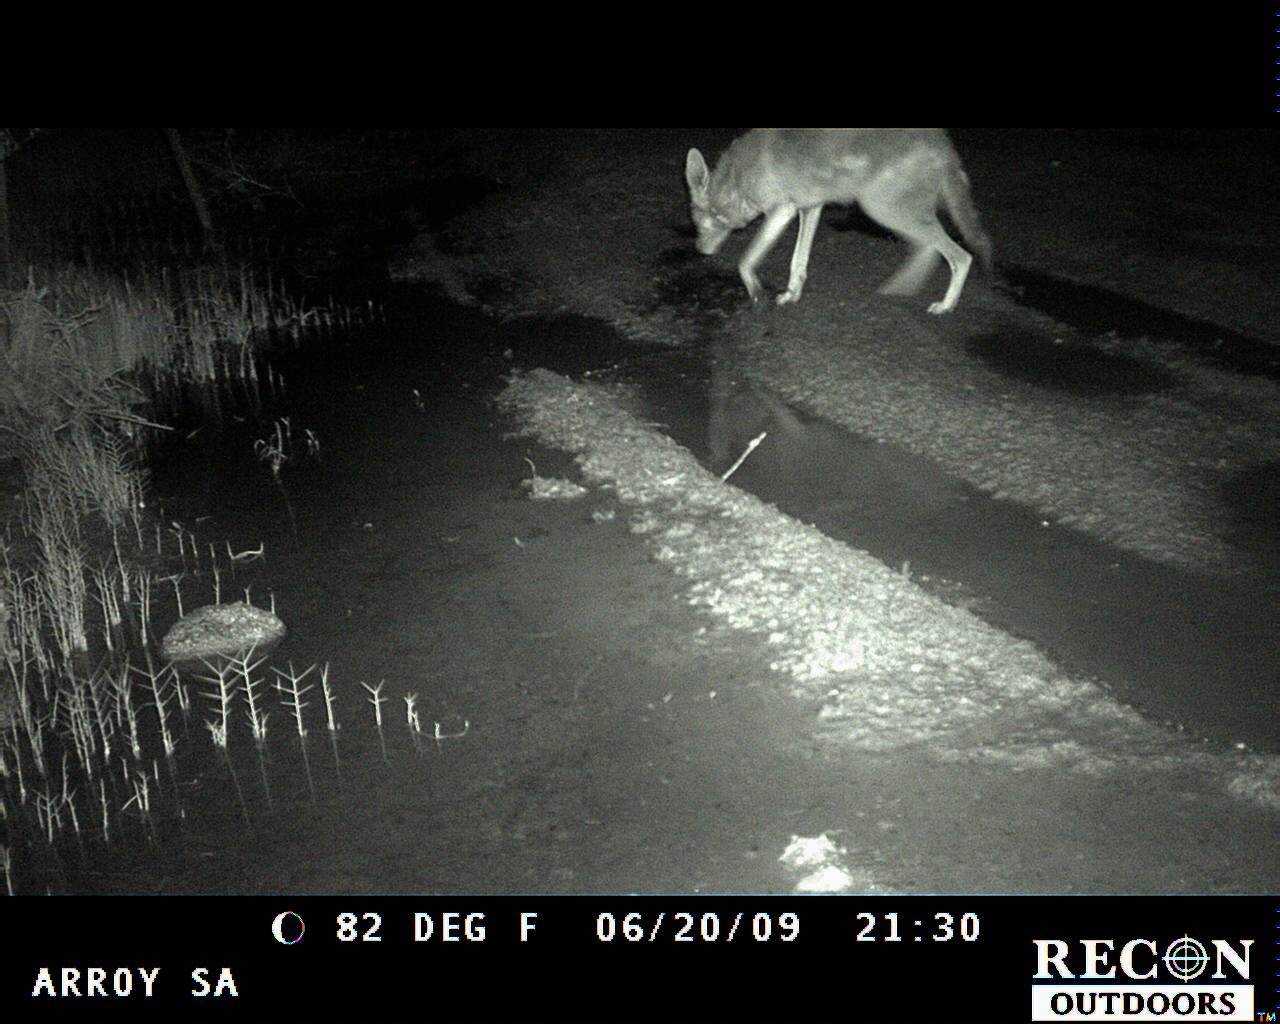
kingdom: Animalia
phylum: Chordata
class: Mammalia
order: Carnivora
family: Canidae
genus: Canis
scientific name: Canis latrans
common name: Coyote
